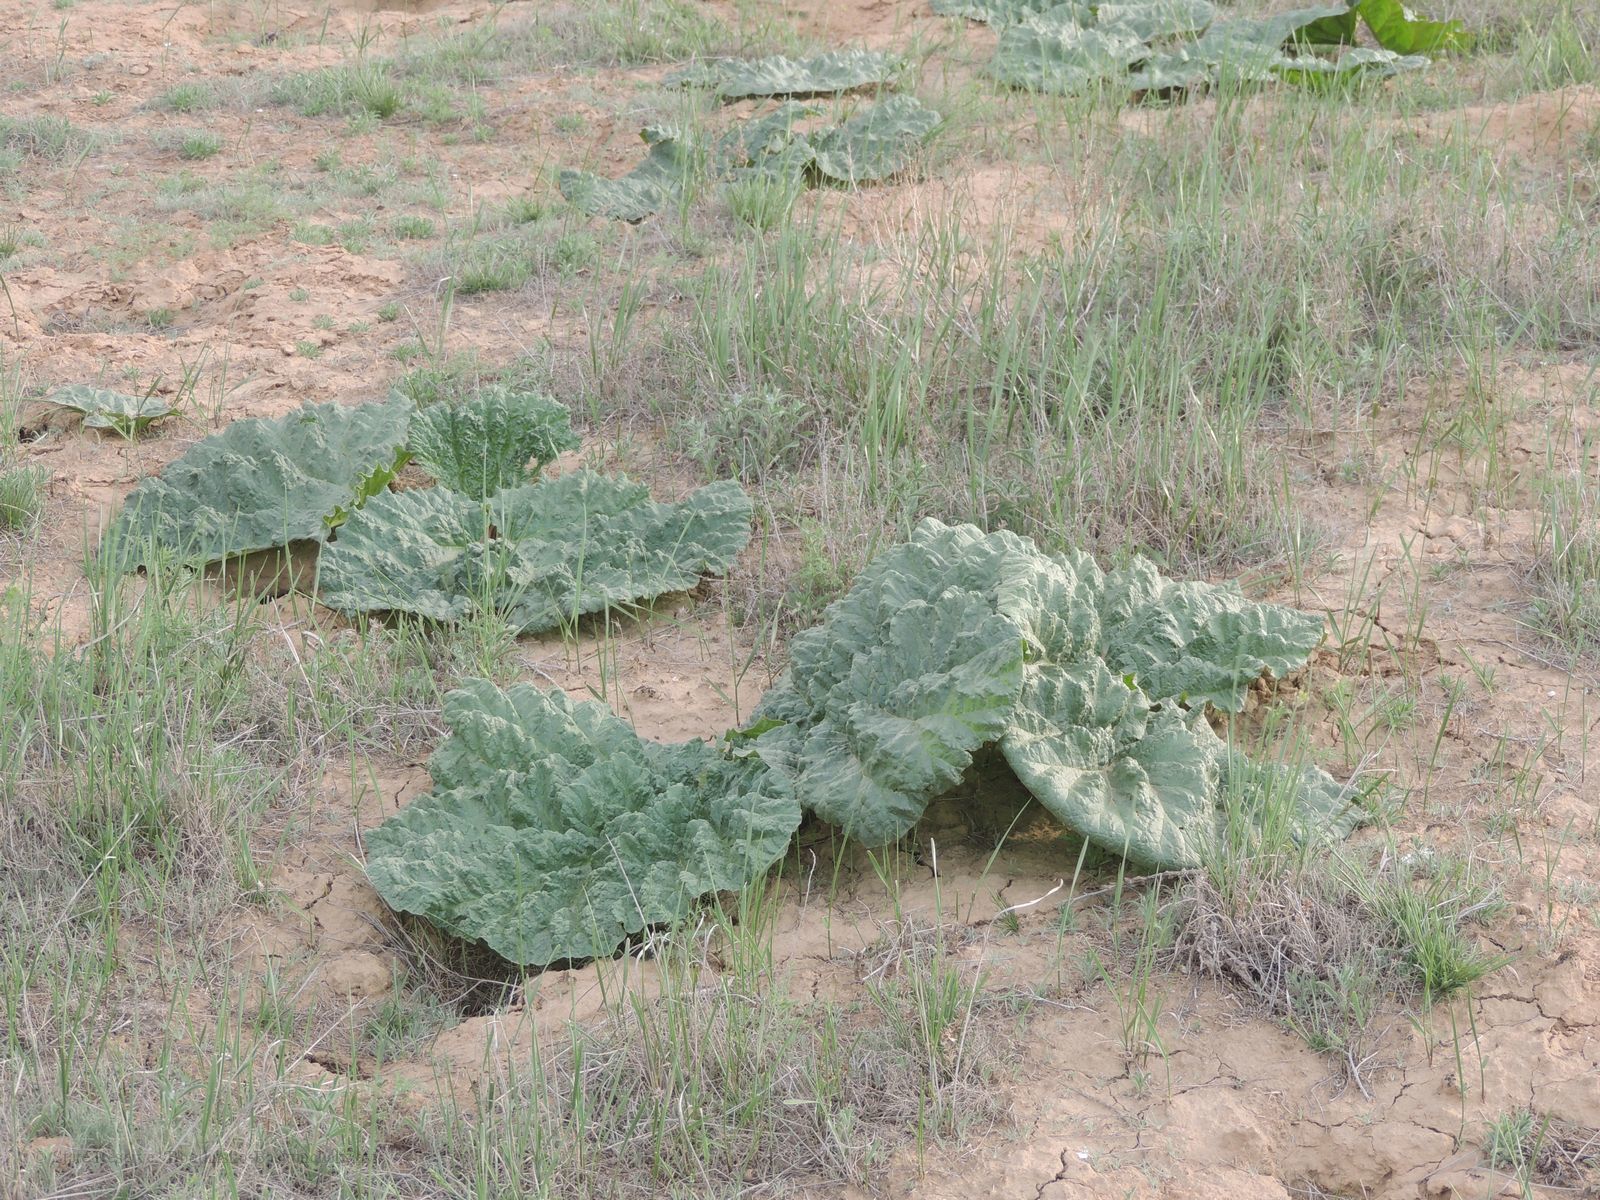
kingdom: Plantae
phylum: Tracheophyta
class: Magnoliopsida
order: Caryophyllales
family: Polygonaceae
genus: Rheum
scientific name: Rheum tataricum
